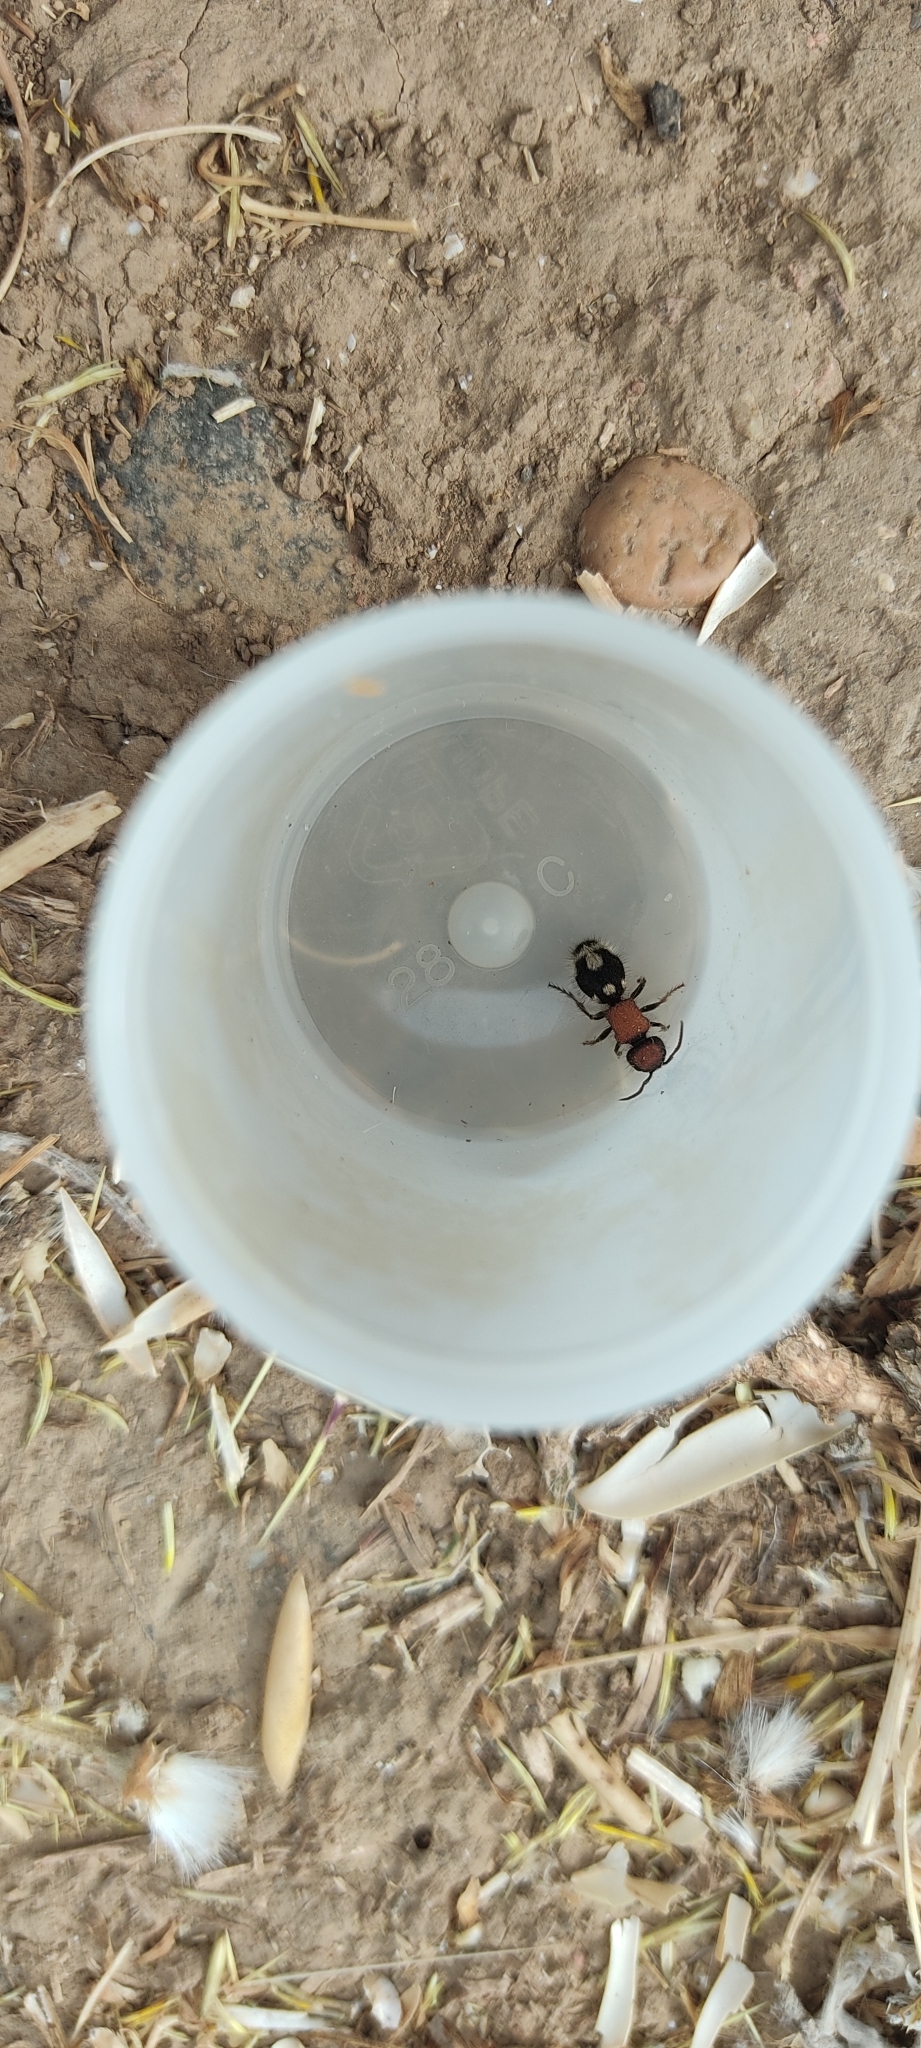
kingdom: Animalia
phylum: Arthropoda
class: Insecta
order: Hymenoptera
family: Mutillidae
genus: Ronisia
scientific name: Ronisia brutia
